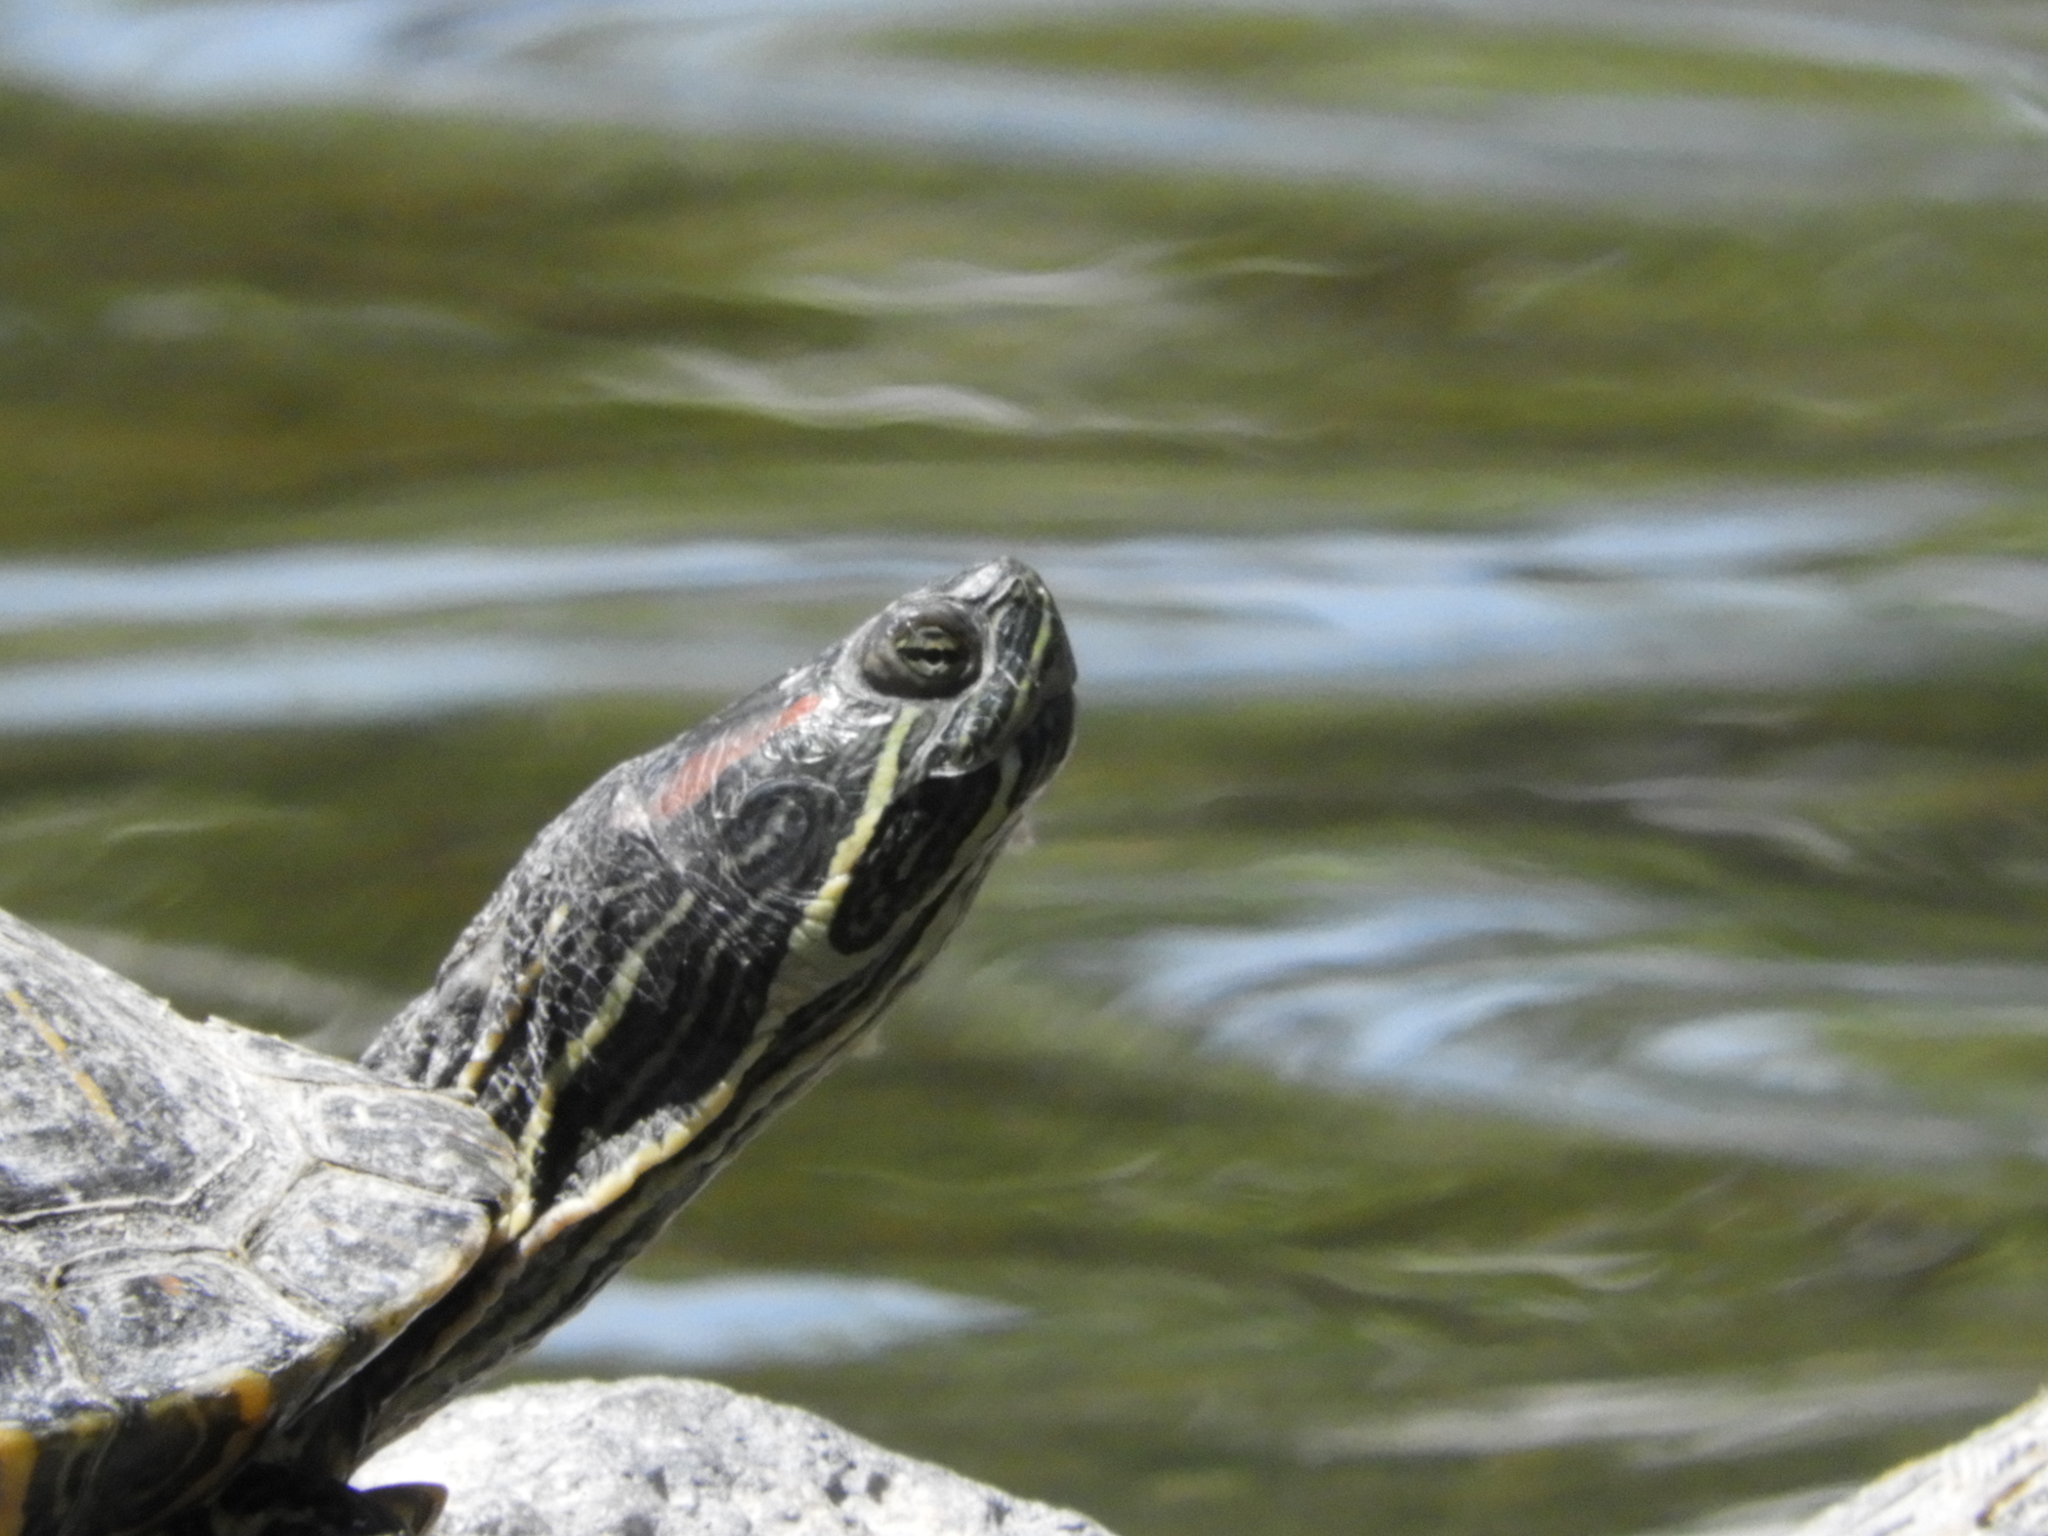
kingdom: Animalia
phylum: Chordata
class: Testudines
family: Emydidae
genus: Trachemys
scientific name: Trachemys scripta
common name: Slider
